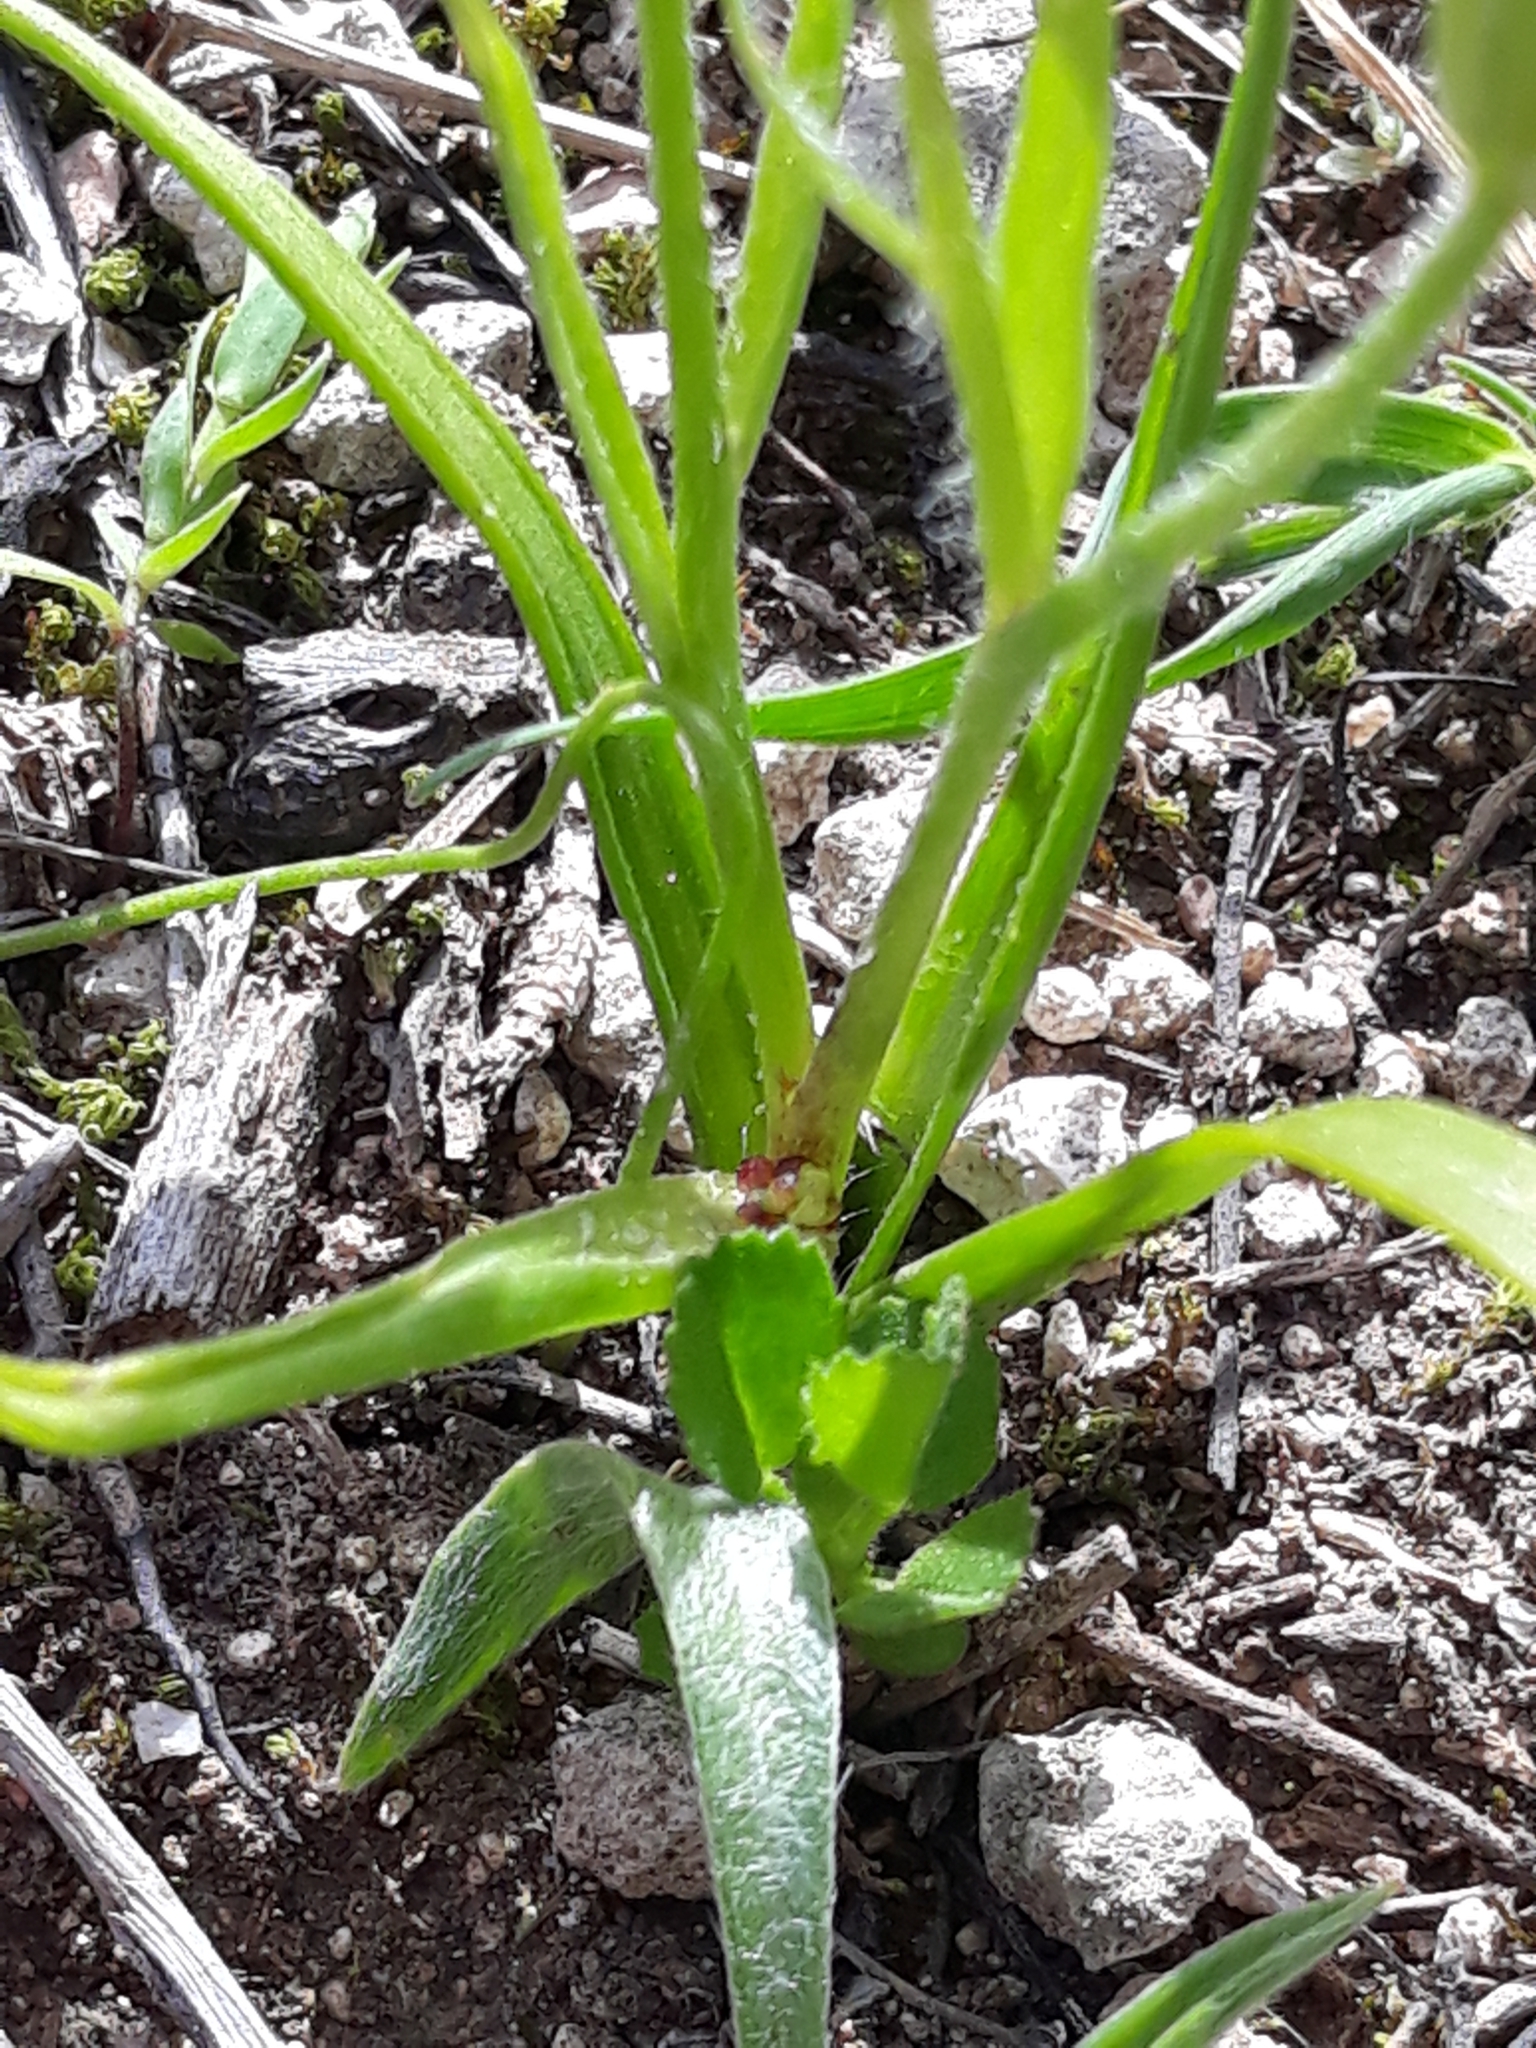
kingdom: Plantae
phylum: Tracheophyta
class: Liliopsida
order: Liliales
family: Liliaceae
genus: Gagea
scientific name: Gagea lacaitae
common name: Gagée de lacaita
